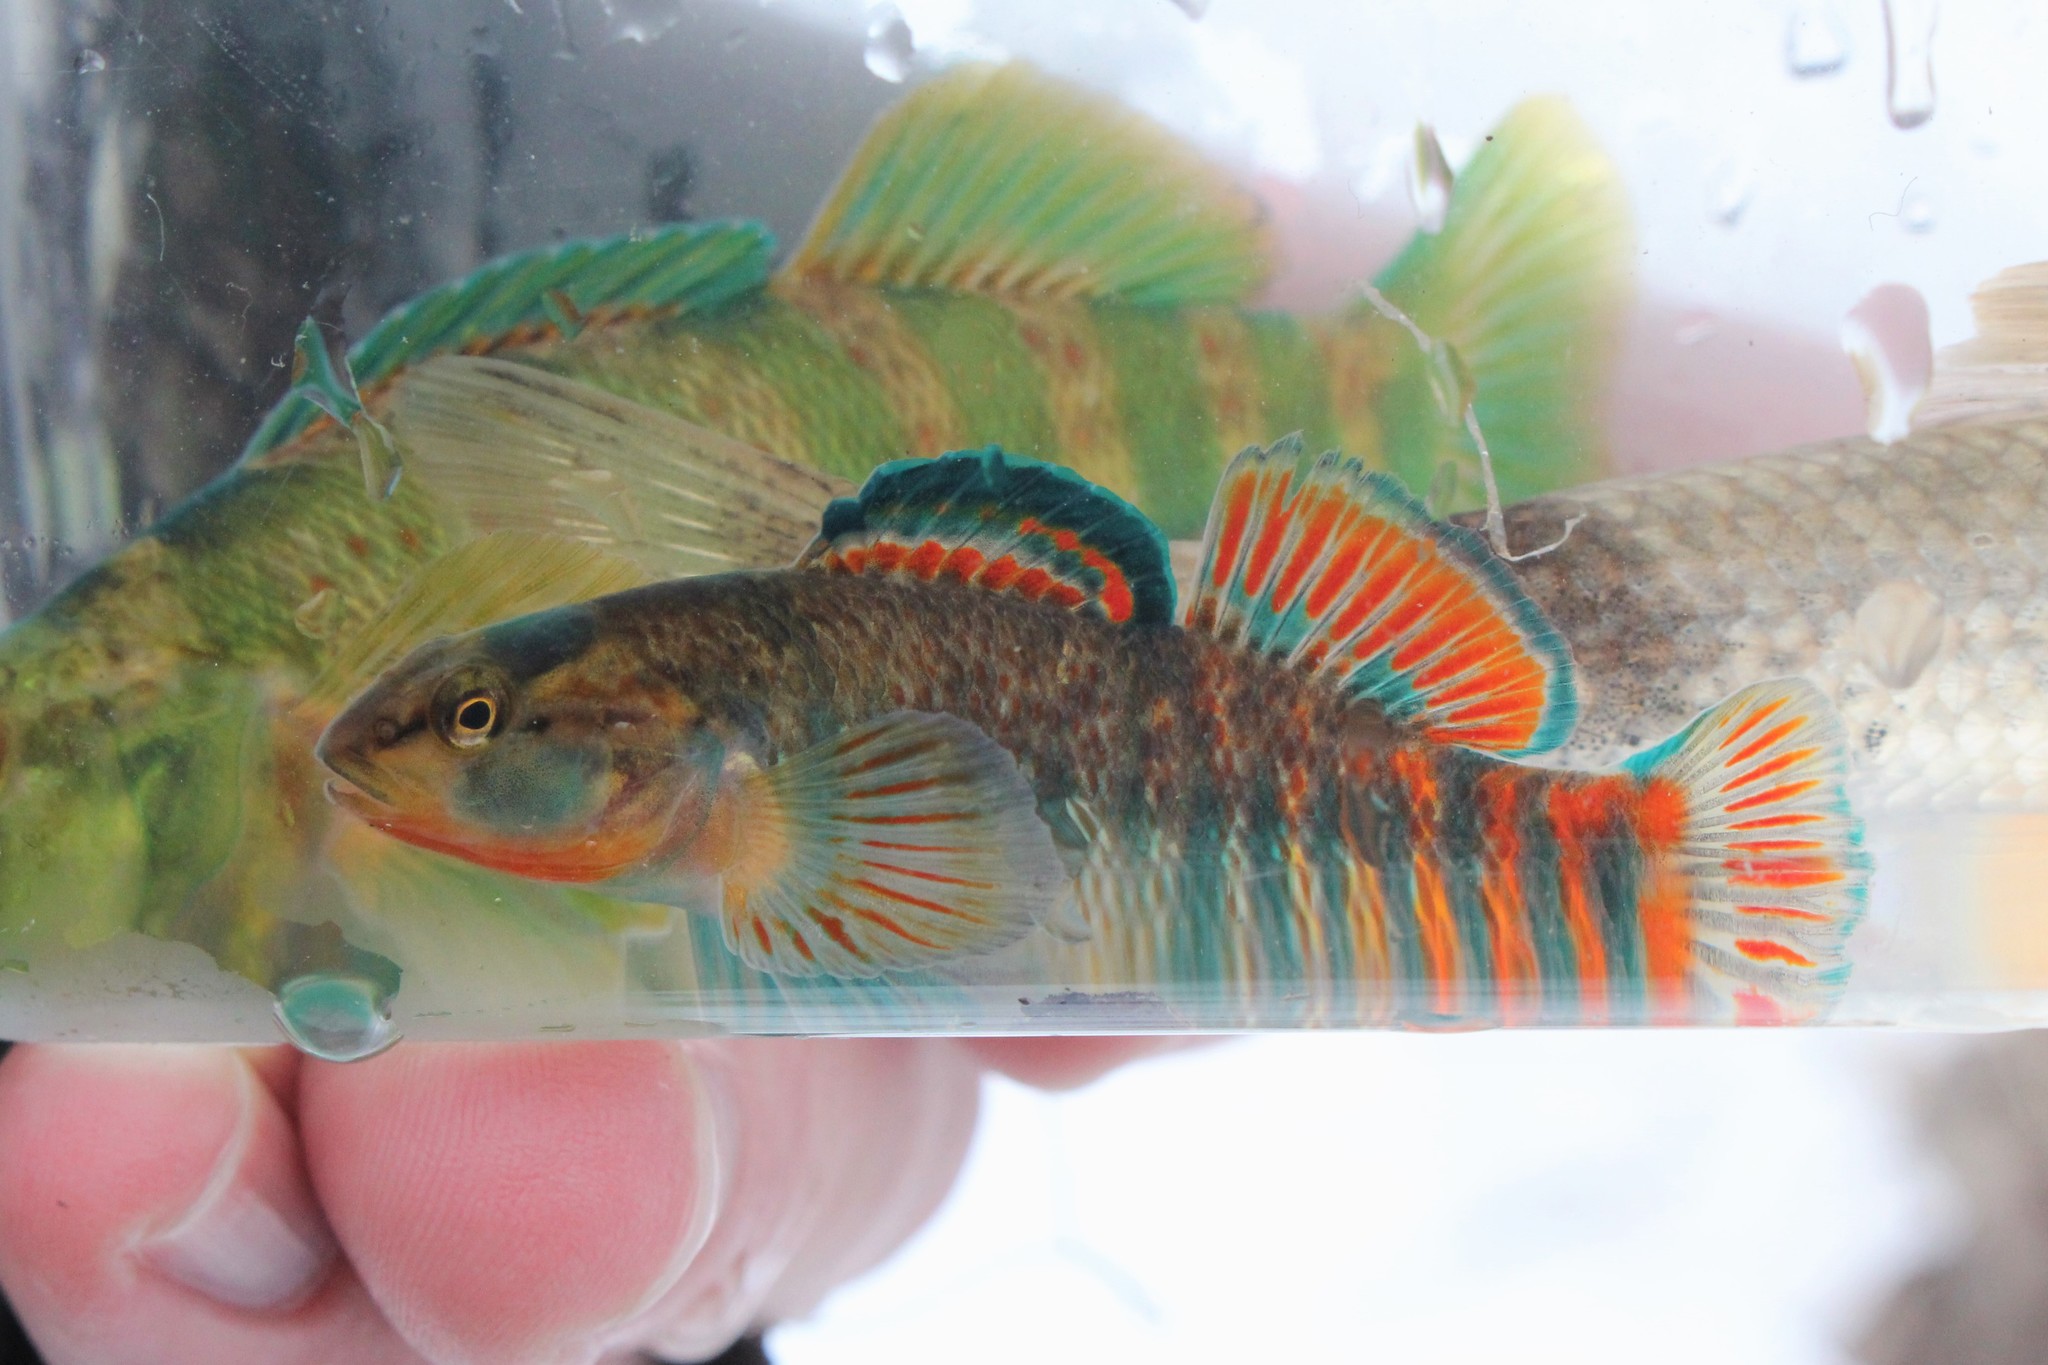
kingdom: Animalia
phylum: Chordata
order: Perciformes
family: Percidae
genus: Etheostoma
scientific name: Etheostoma caeruleum
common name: Rainbow darter
